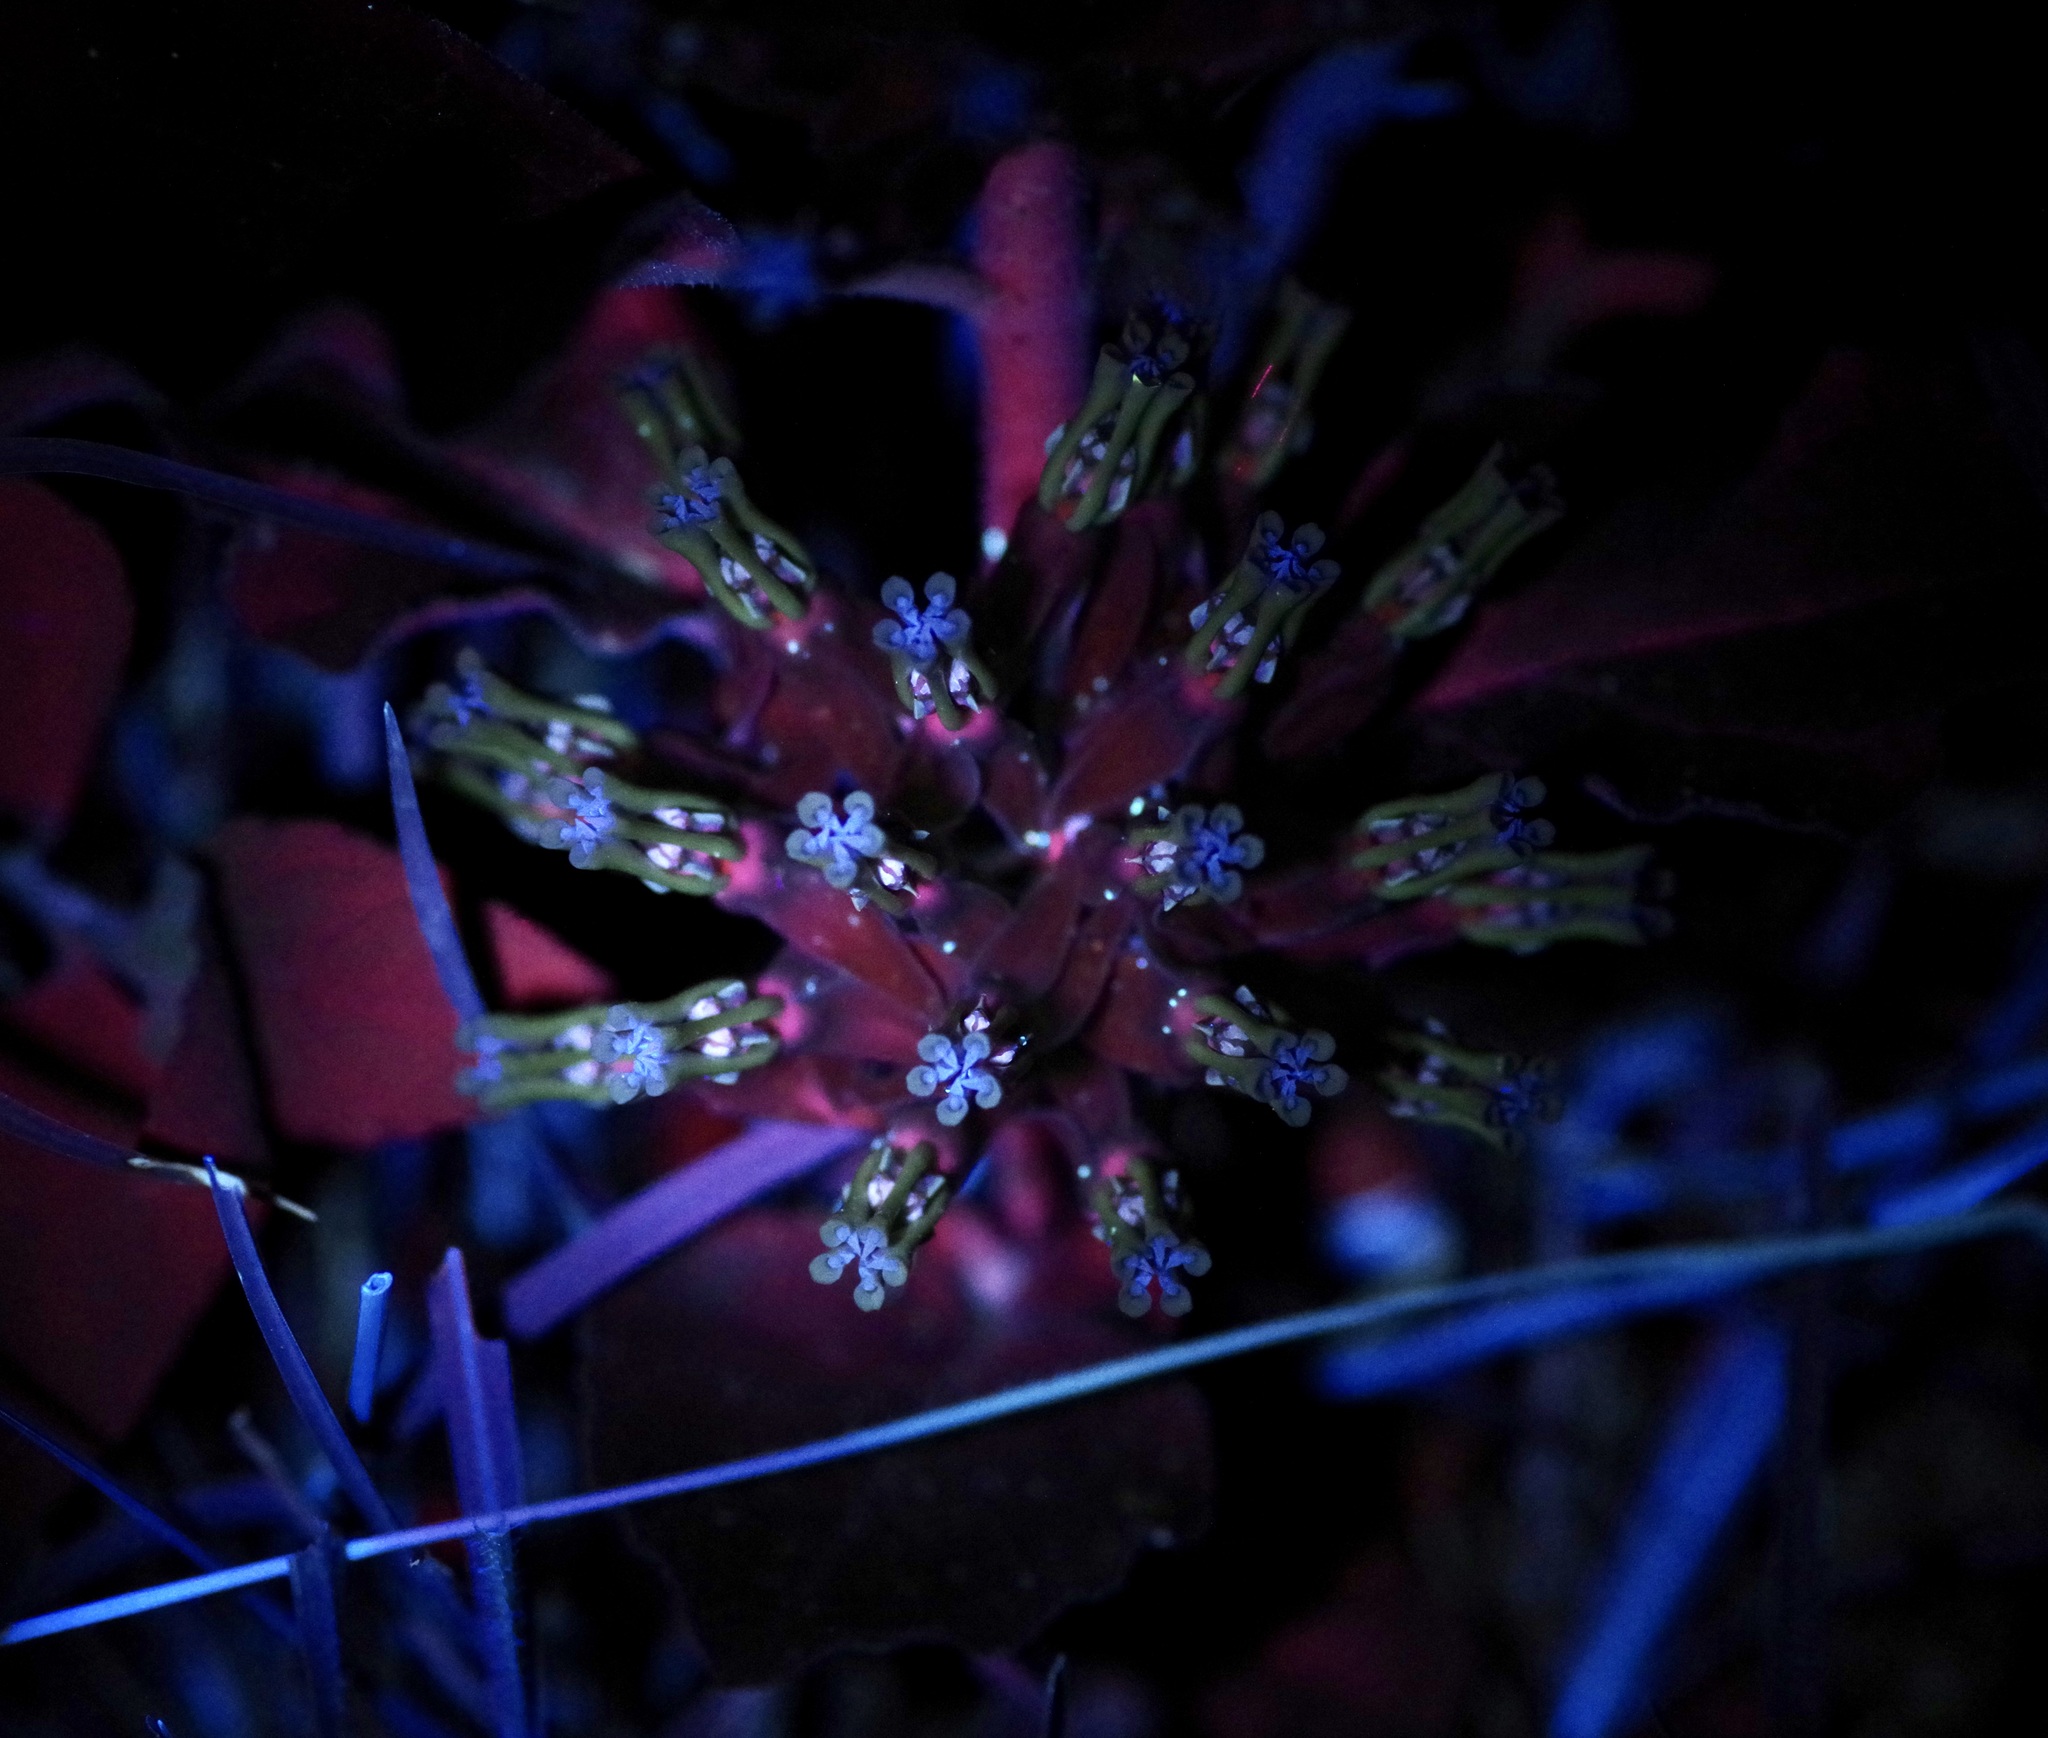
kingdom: Plantae
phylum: Tracheophyta
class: Magnoliopsida
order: Gentianales
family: Apocynaceae
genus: Asclepias
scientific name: Asclepias oenotheroides
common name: Zizotes milkweed
